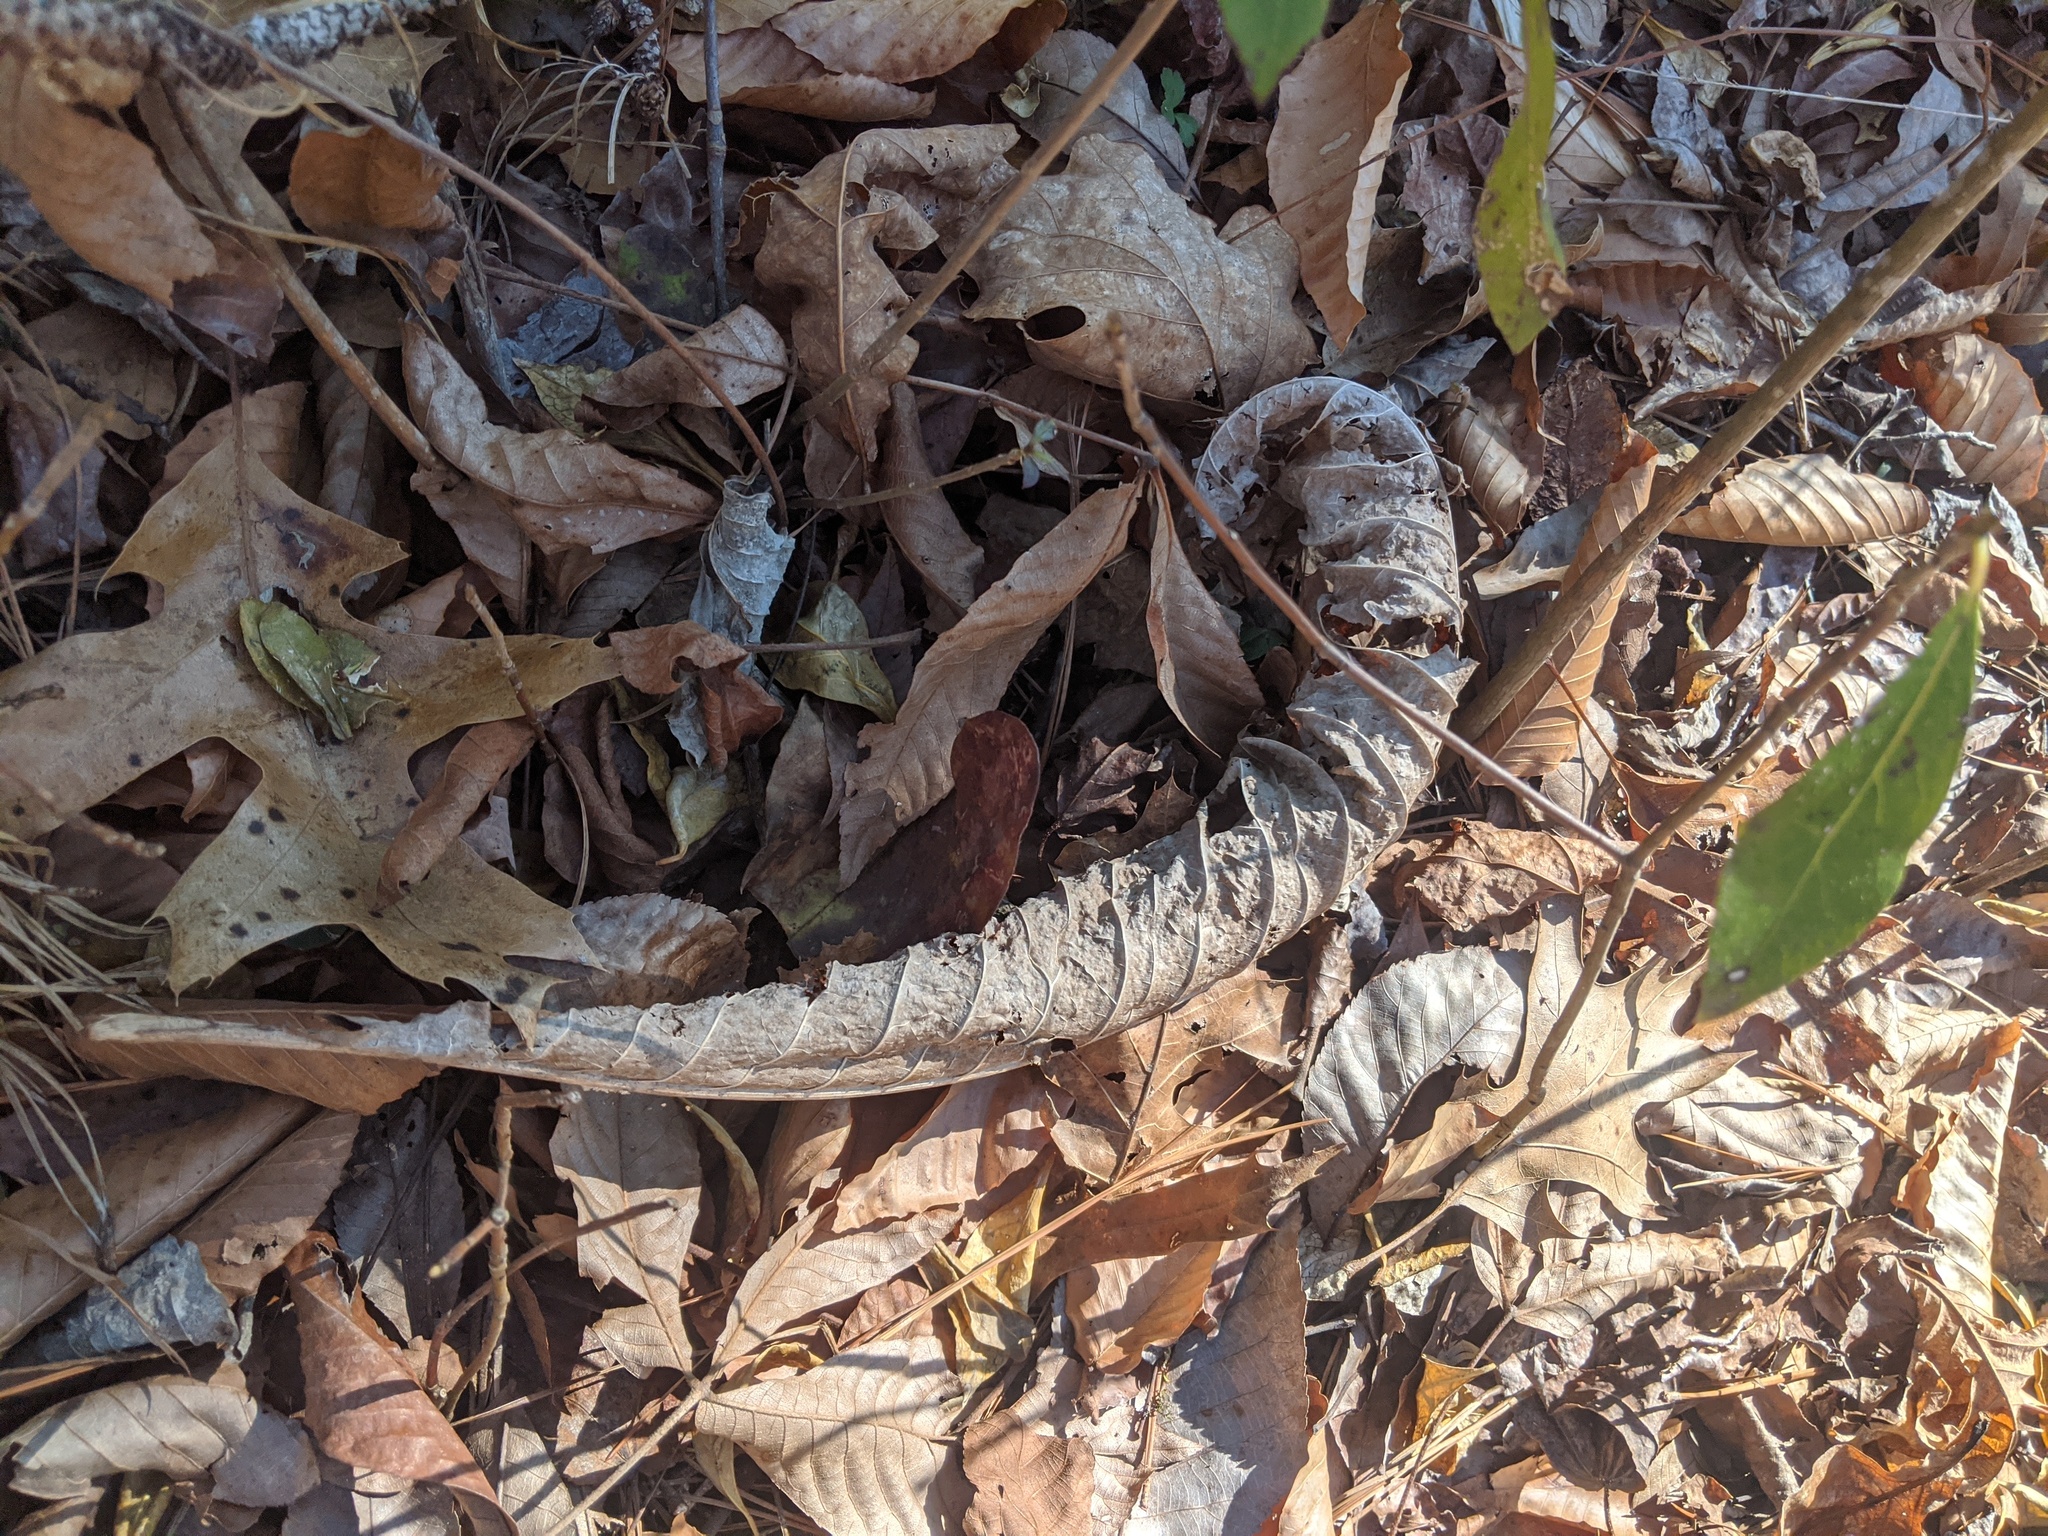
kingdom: Plantae
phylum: Tracheophyta
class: Magnoliopsida
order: Magnoliales
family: Magnoliaceae
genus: Magnolia
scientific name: Magnolia tripetala
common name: Umbrella magnolia
